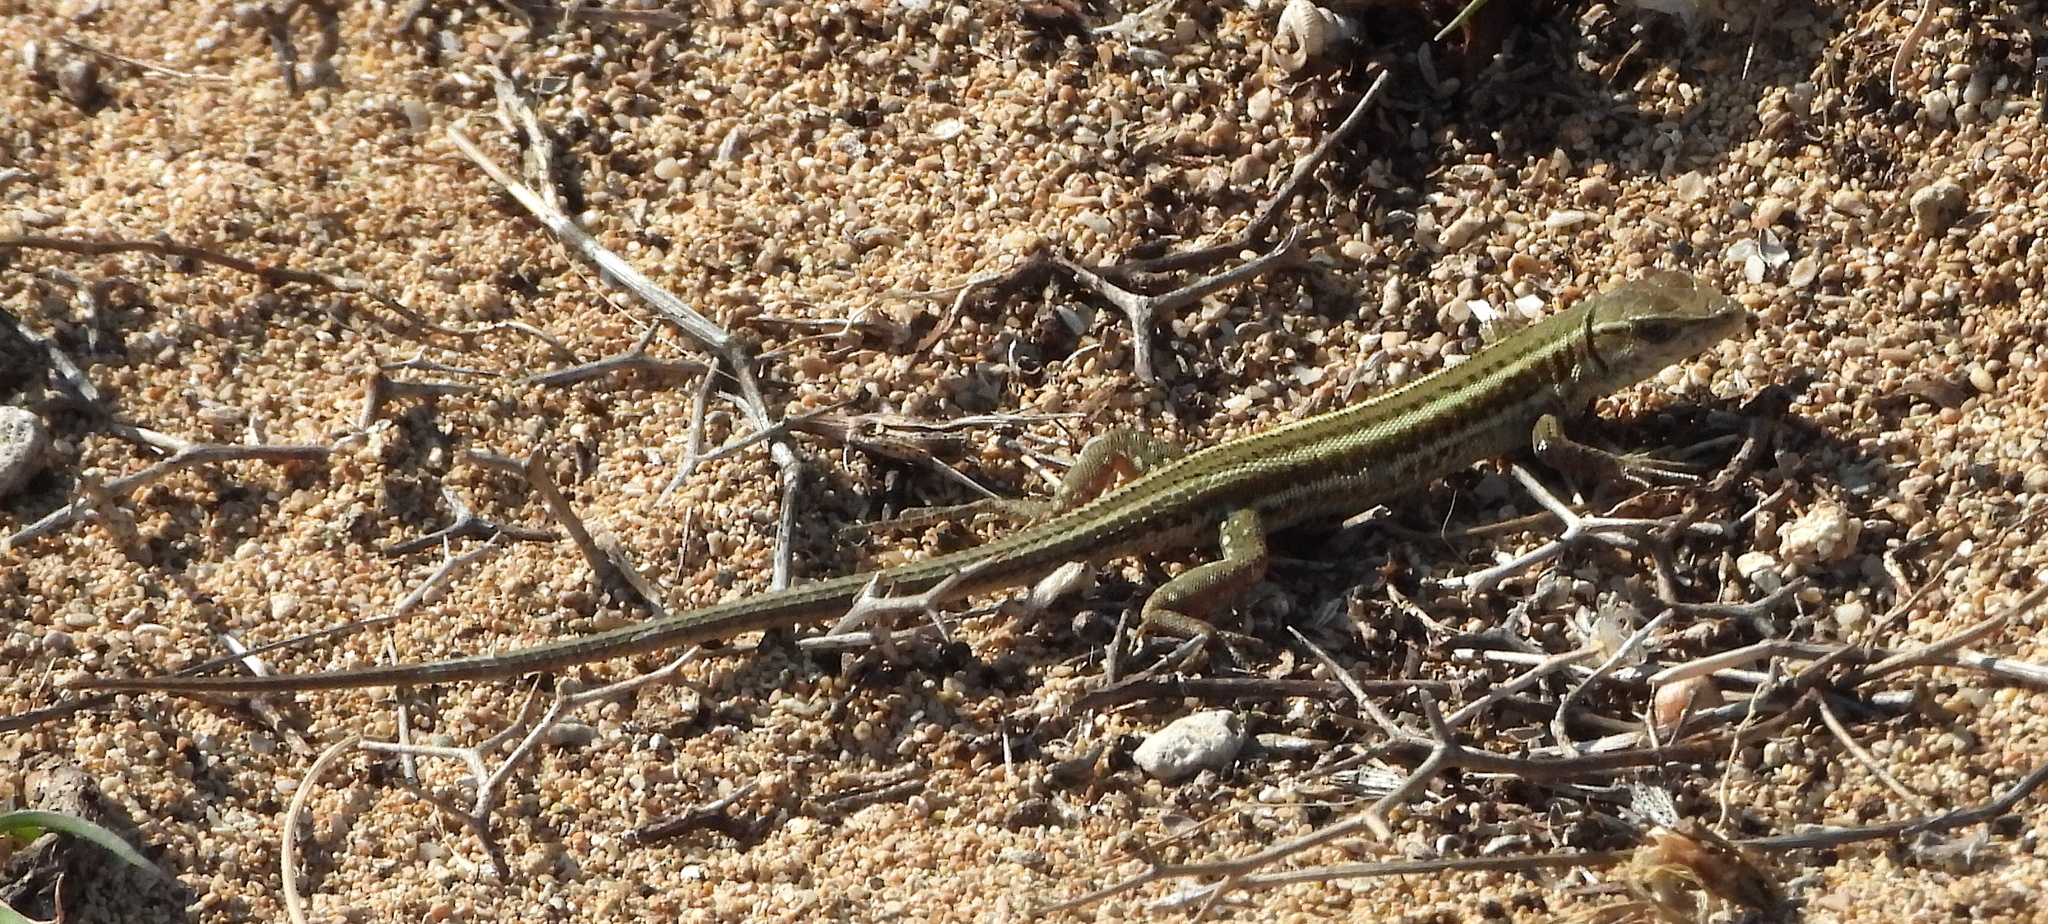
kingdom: Animalia
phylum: Chordata
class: Squamata
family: Lacertidae
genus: Ophisops
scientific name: Ophisops elegans
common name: Snake-eyed lizard
